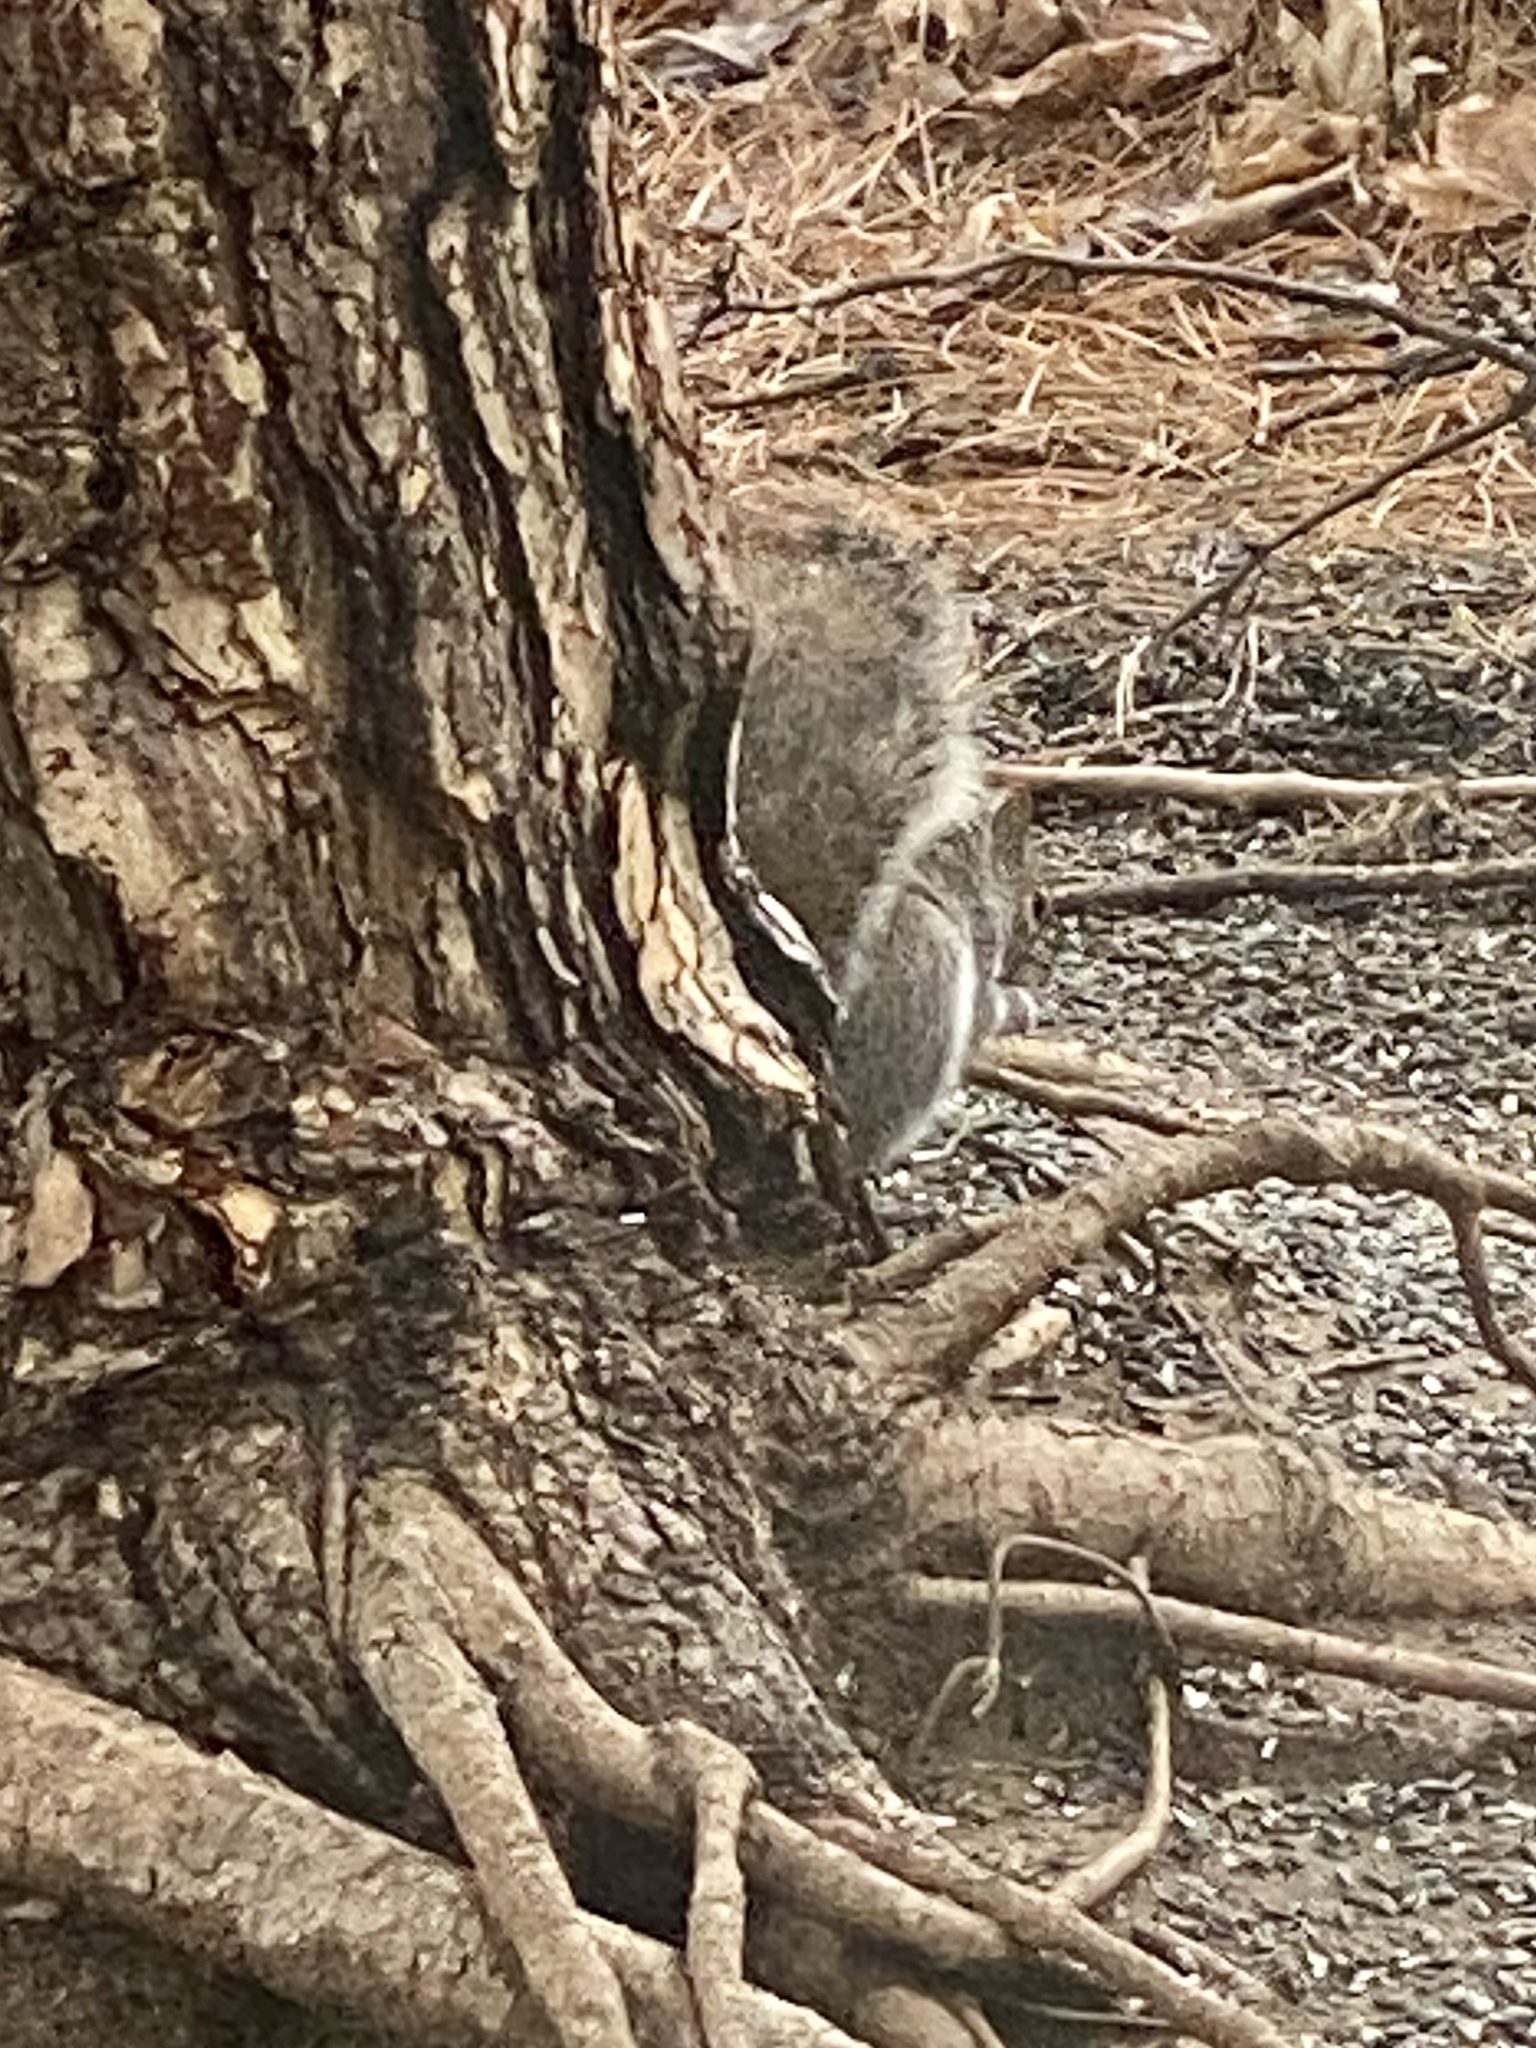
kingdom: Animalia
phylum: Chordata
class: Mammalia
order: Rodentia
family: Sciuridae
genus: Sciurus
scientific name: Sciurus carolinensis
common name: Eastern gray squirrel
